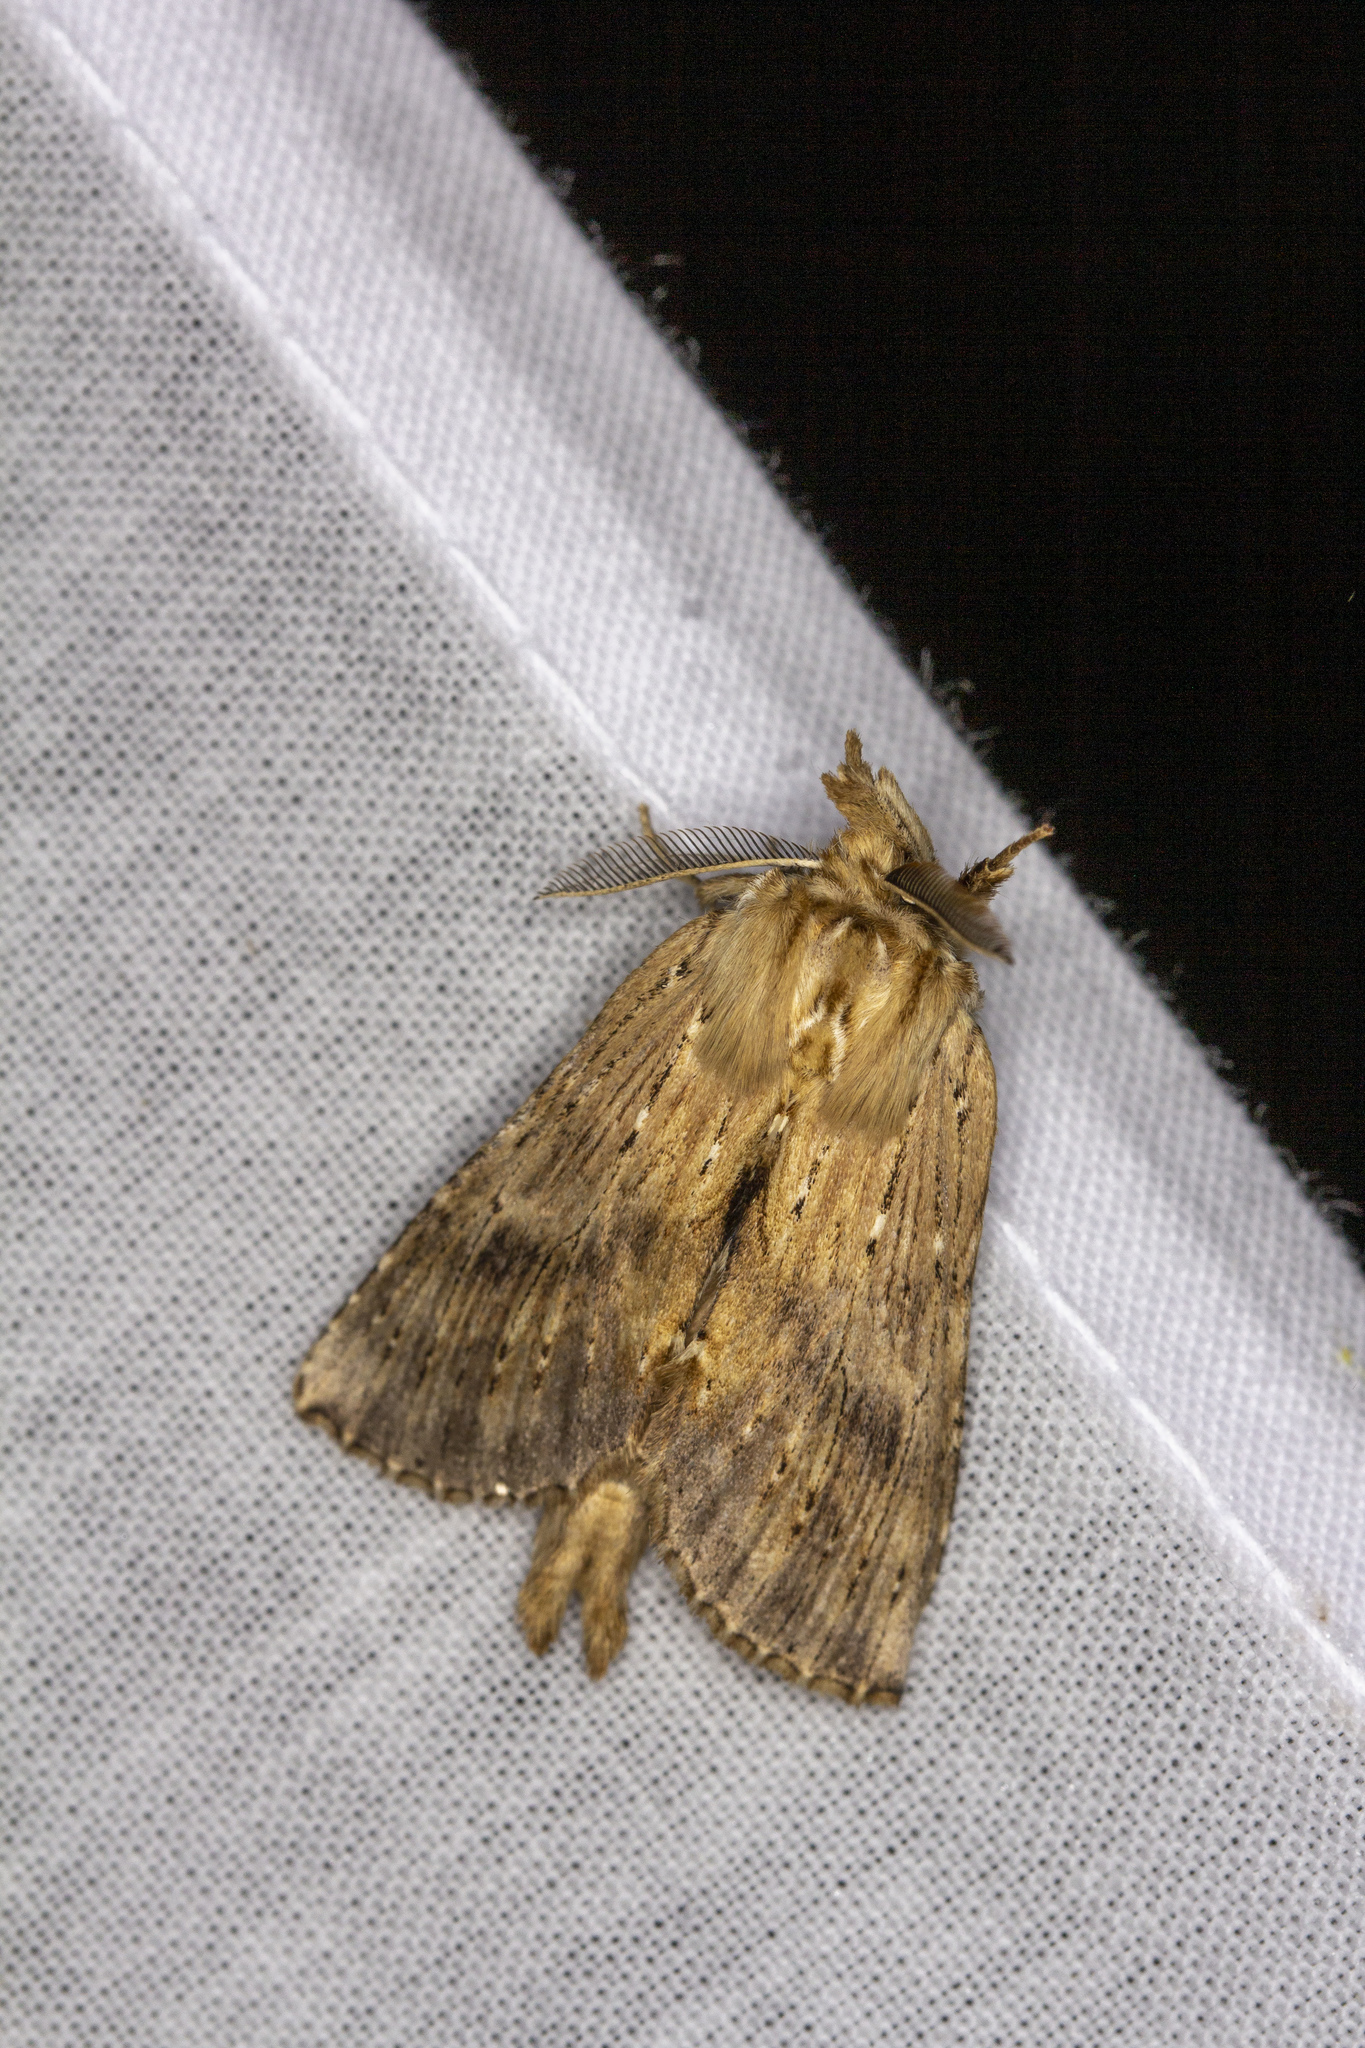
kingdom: Animalia
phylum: Arthropoda
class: Insecta
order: Lepidoptera
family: Notodontidae
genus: Pterostoma
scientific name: Pterostoma palpina
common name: Pale prominent
